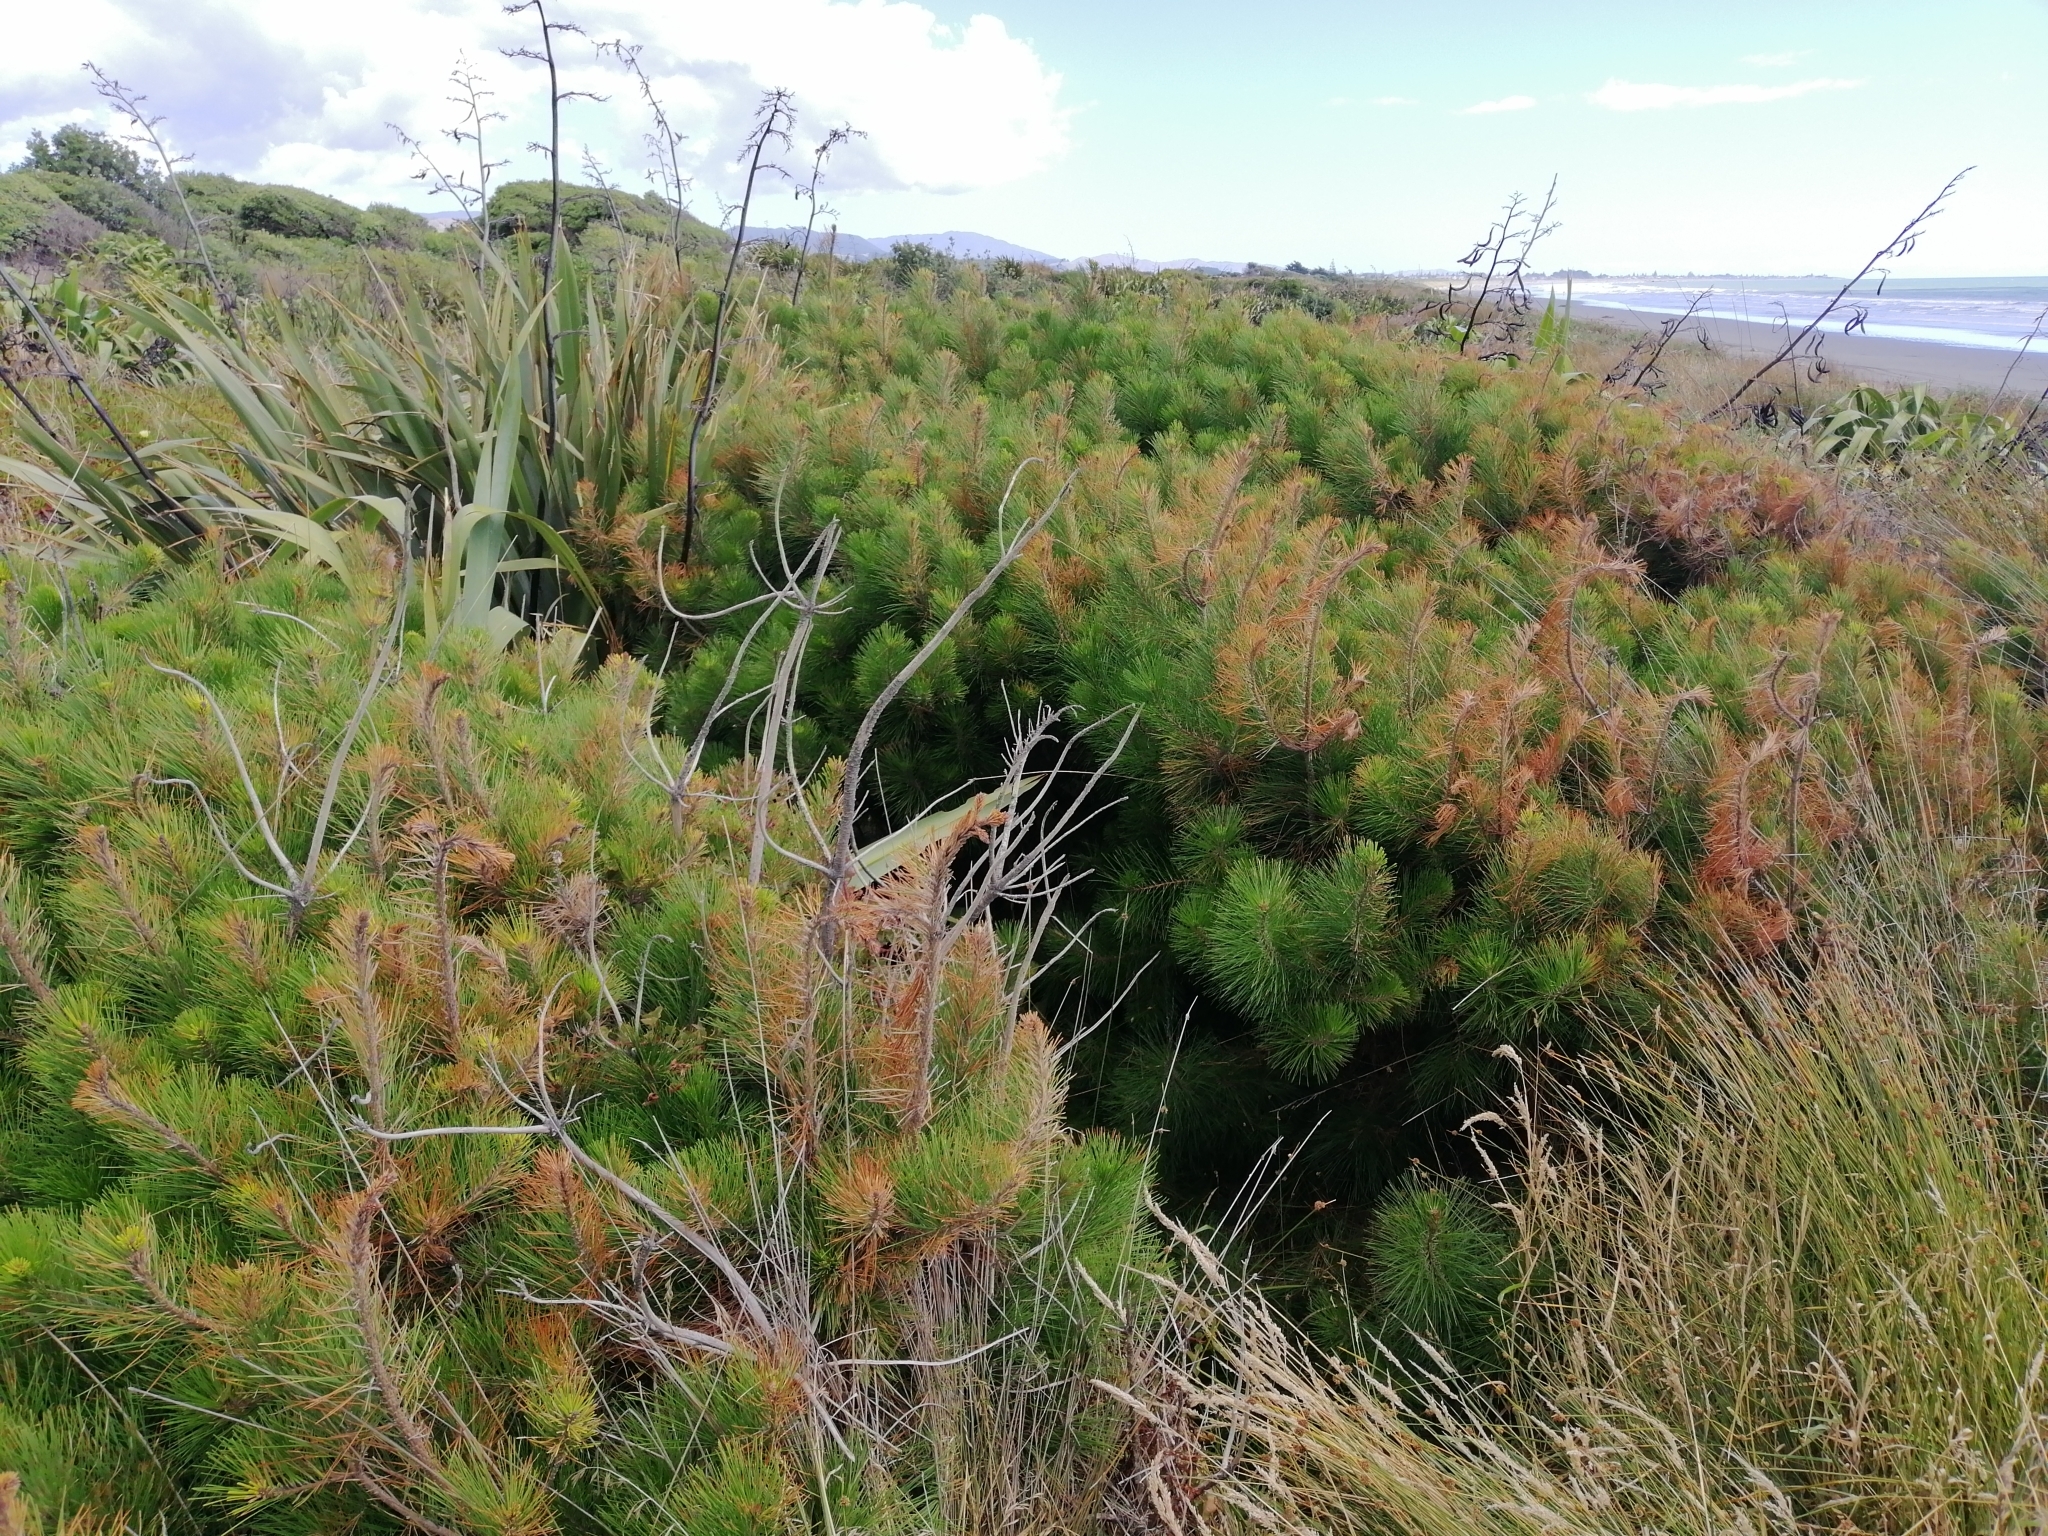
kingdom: Plantae
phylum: Tracheophyta
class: Pinopsida
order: Pinales
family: Pinaceae
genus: Pinus
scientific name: Pinus radiata
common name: Monterey pine
